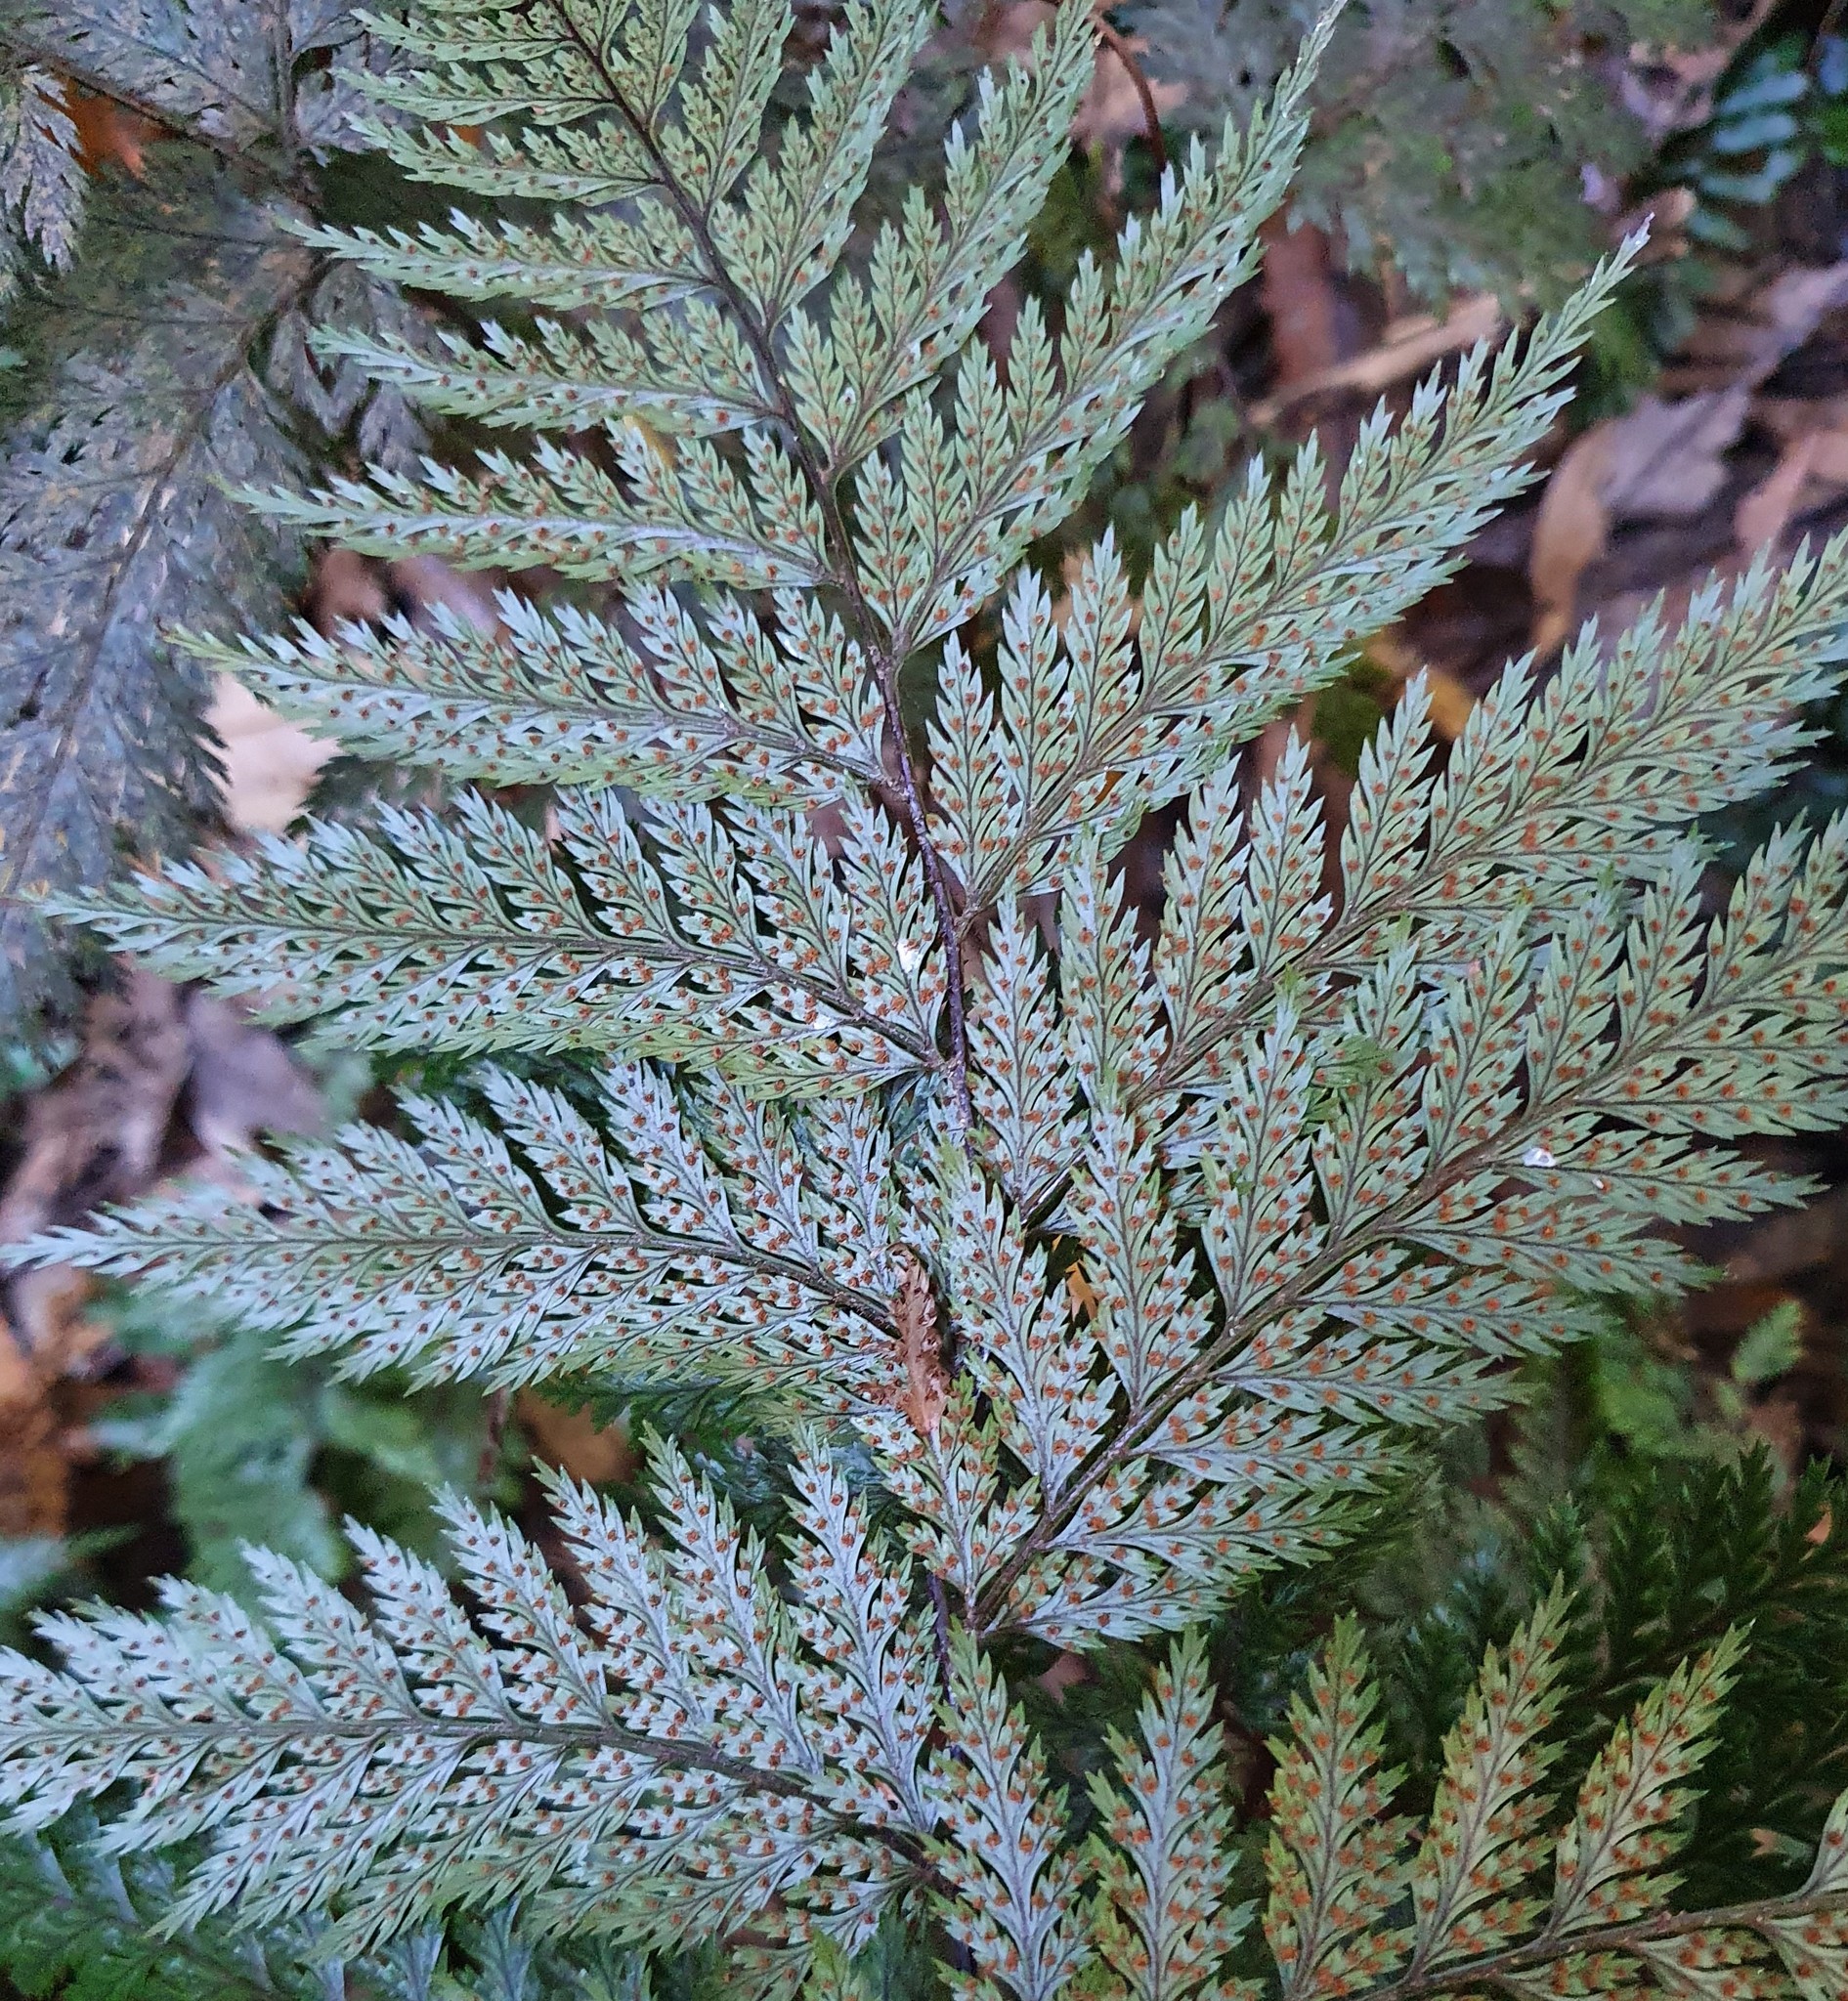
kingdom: Plantae
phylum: Tracheophyta
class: Polypodiopsida
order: Polypodiales
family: Dryopteridaceae
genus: Lastreopsis
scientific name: Lastreopsis hispida
